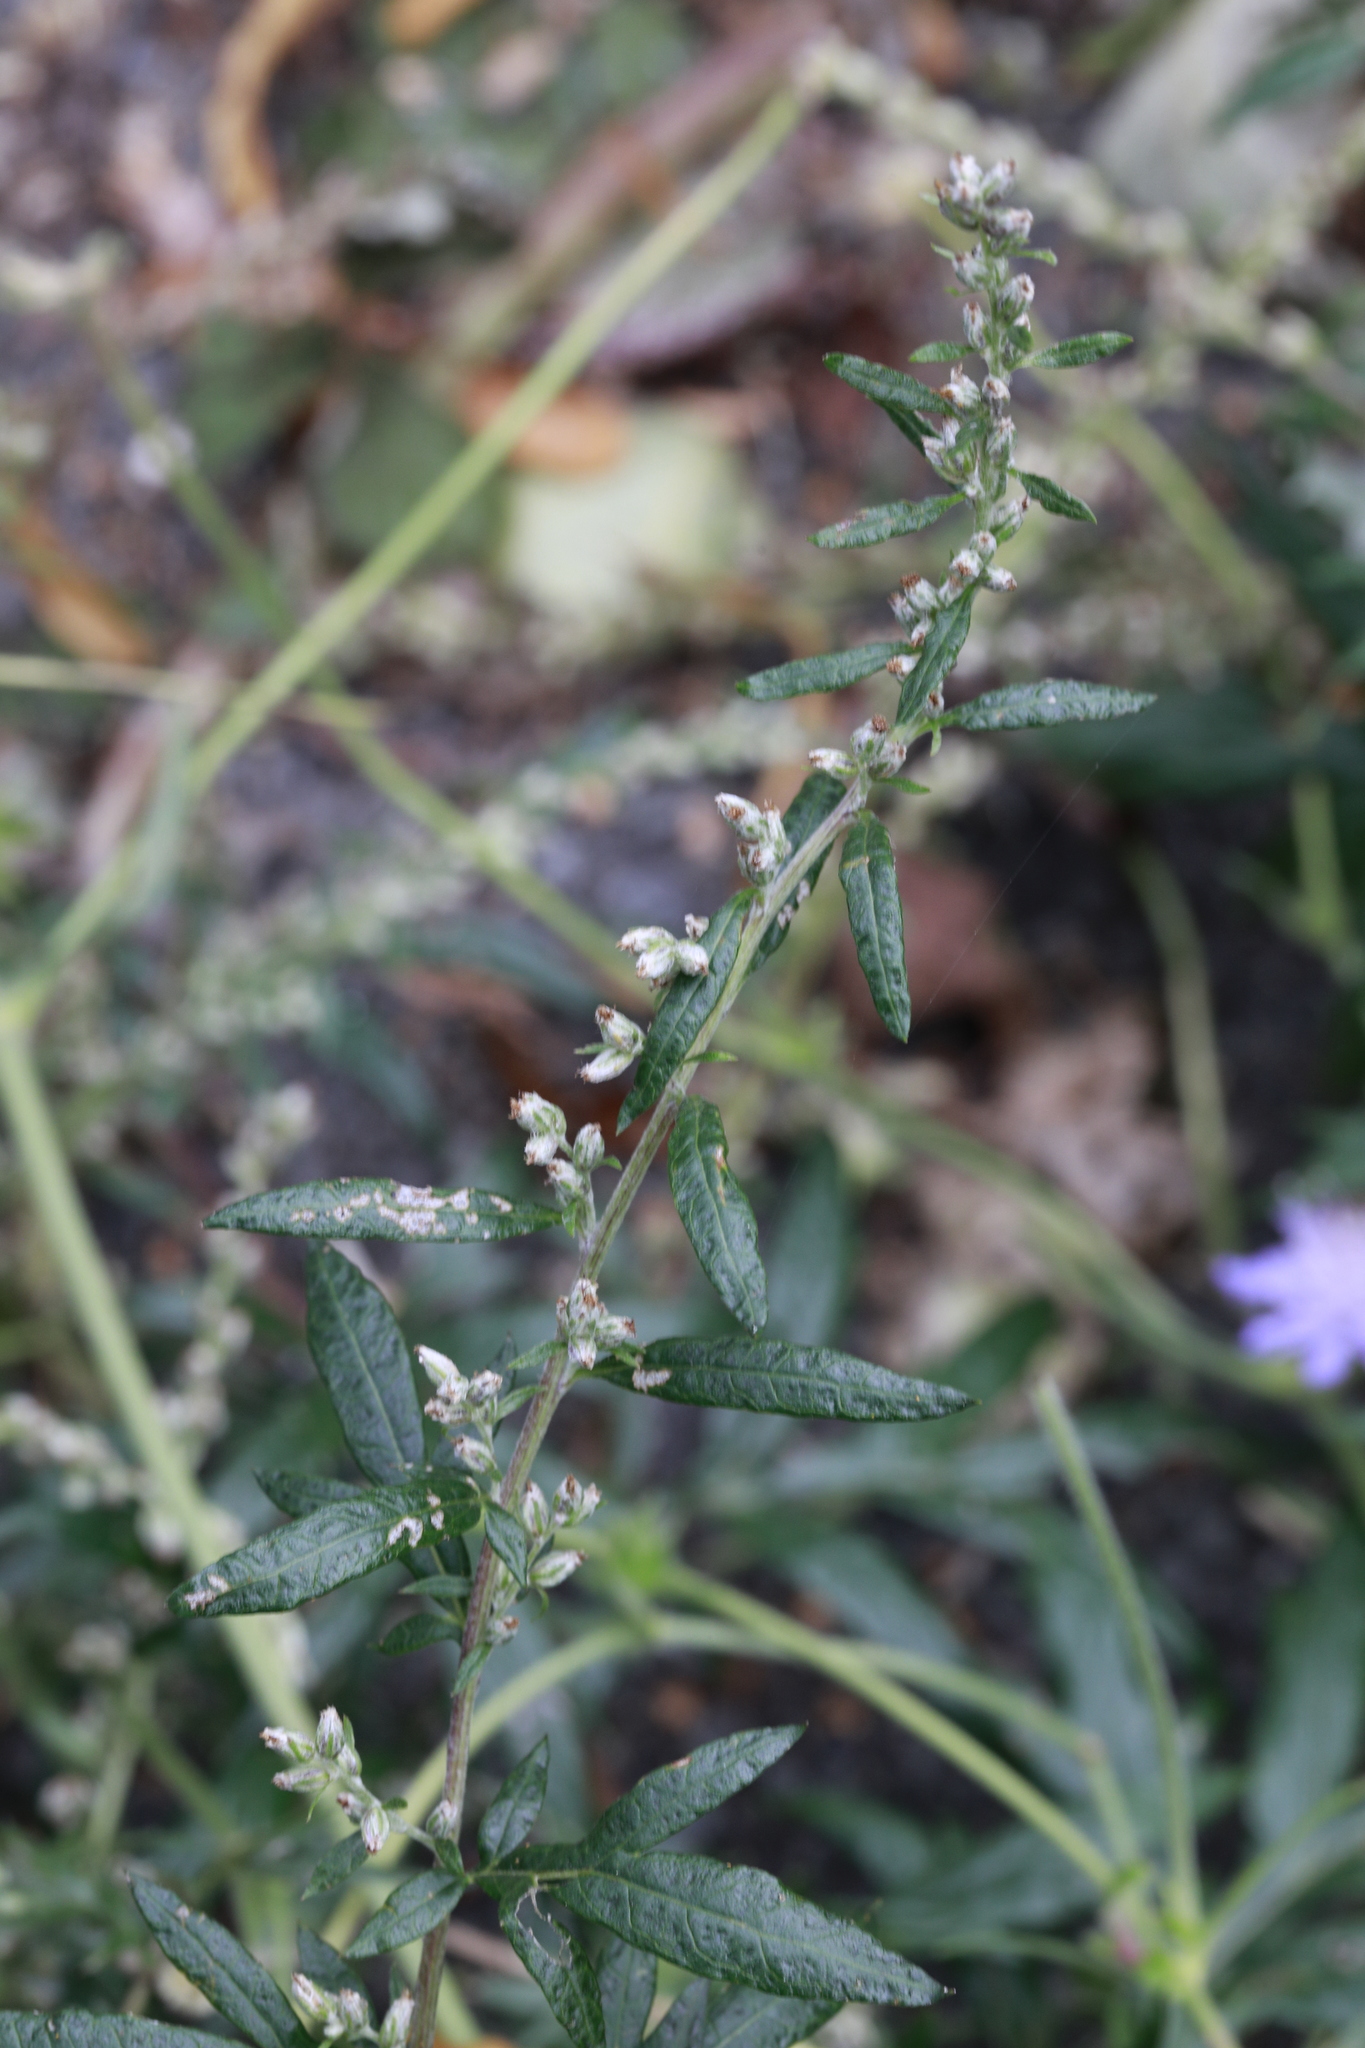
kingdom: Plantae
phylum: Tracheophyta
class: Magnoliopsida
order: Asterales
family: Asteraceae
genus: Artemisia
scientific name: Artemisia vulgaris
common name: Mugwort
